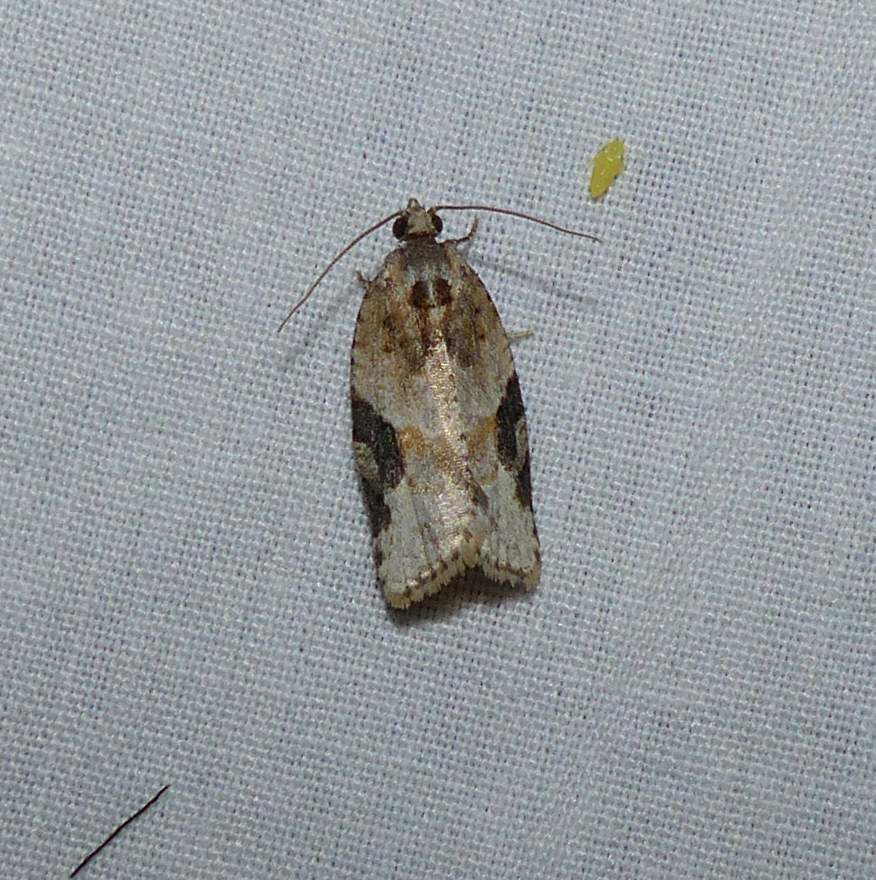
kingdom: Animalia
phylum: Arthropoda
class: Insecta
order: Lepidoptera
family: Tortricidae
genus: Argyrotaenia
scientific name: Argyrotaenia mariana
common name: Gray-banded leafroller moth
